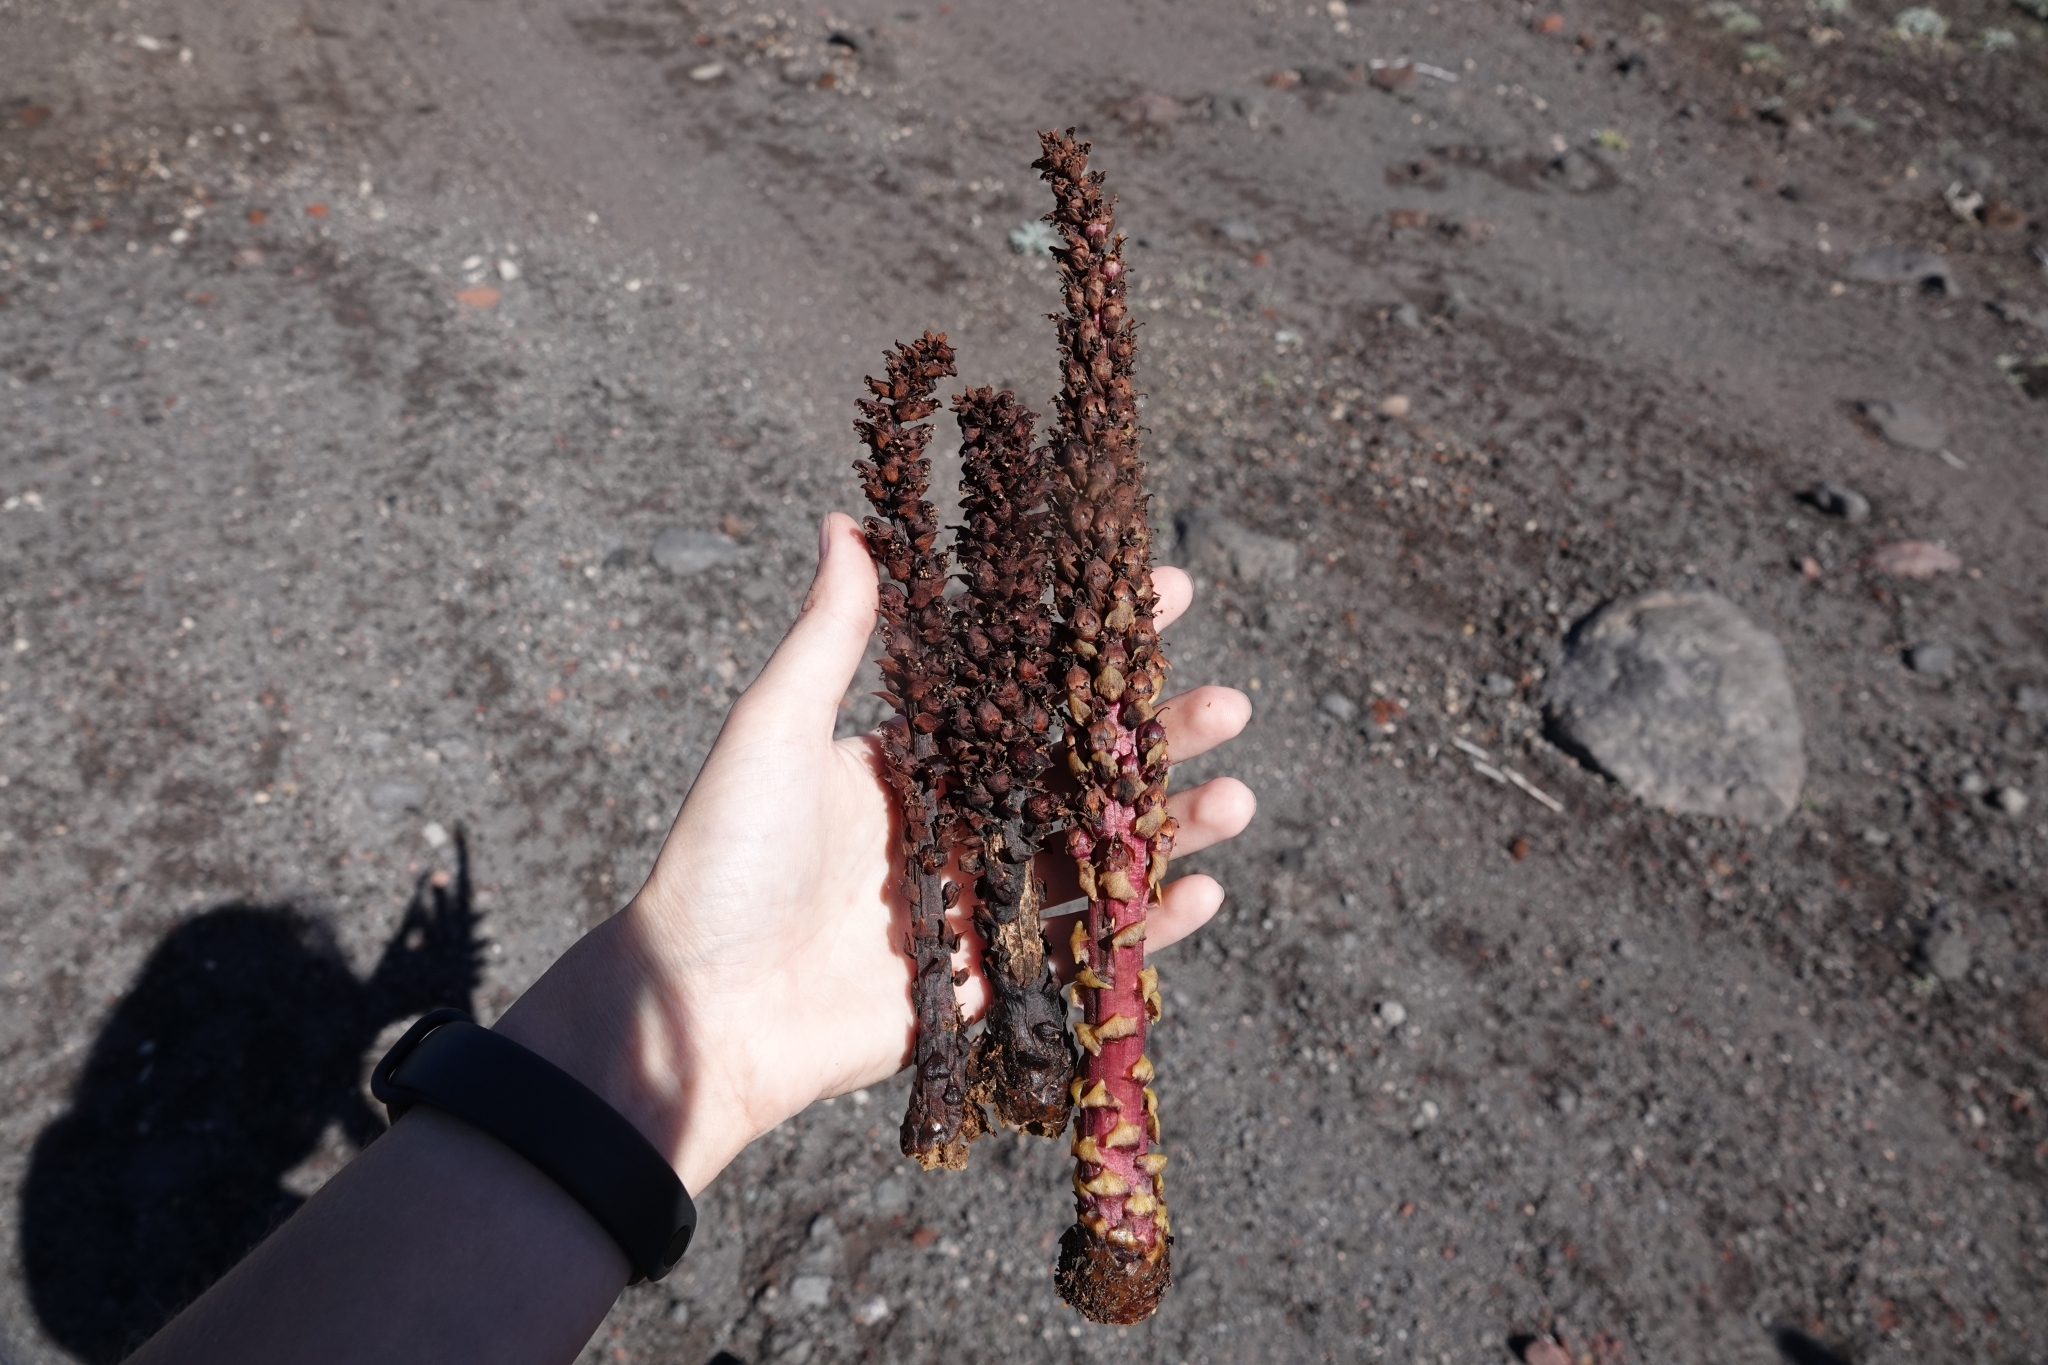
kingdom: Plantae
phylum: Tracheophyta
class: Magnoliopsida
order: Lamiales
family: Orobanchaceae
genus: Boschniakia
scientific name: Boschniakia rossica
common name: Poque
